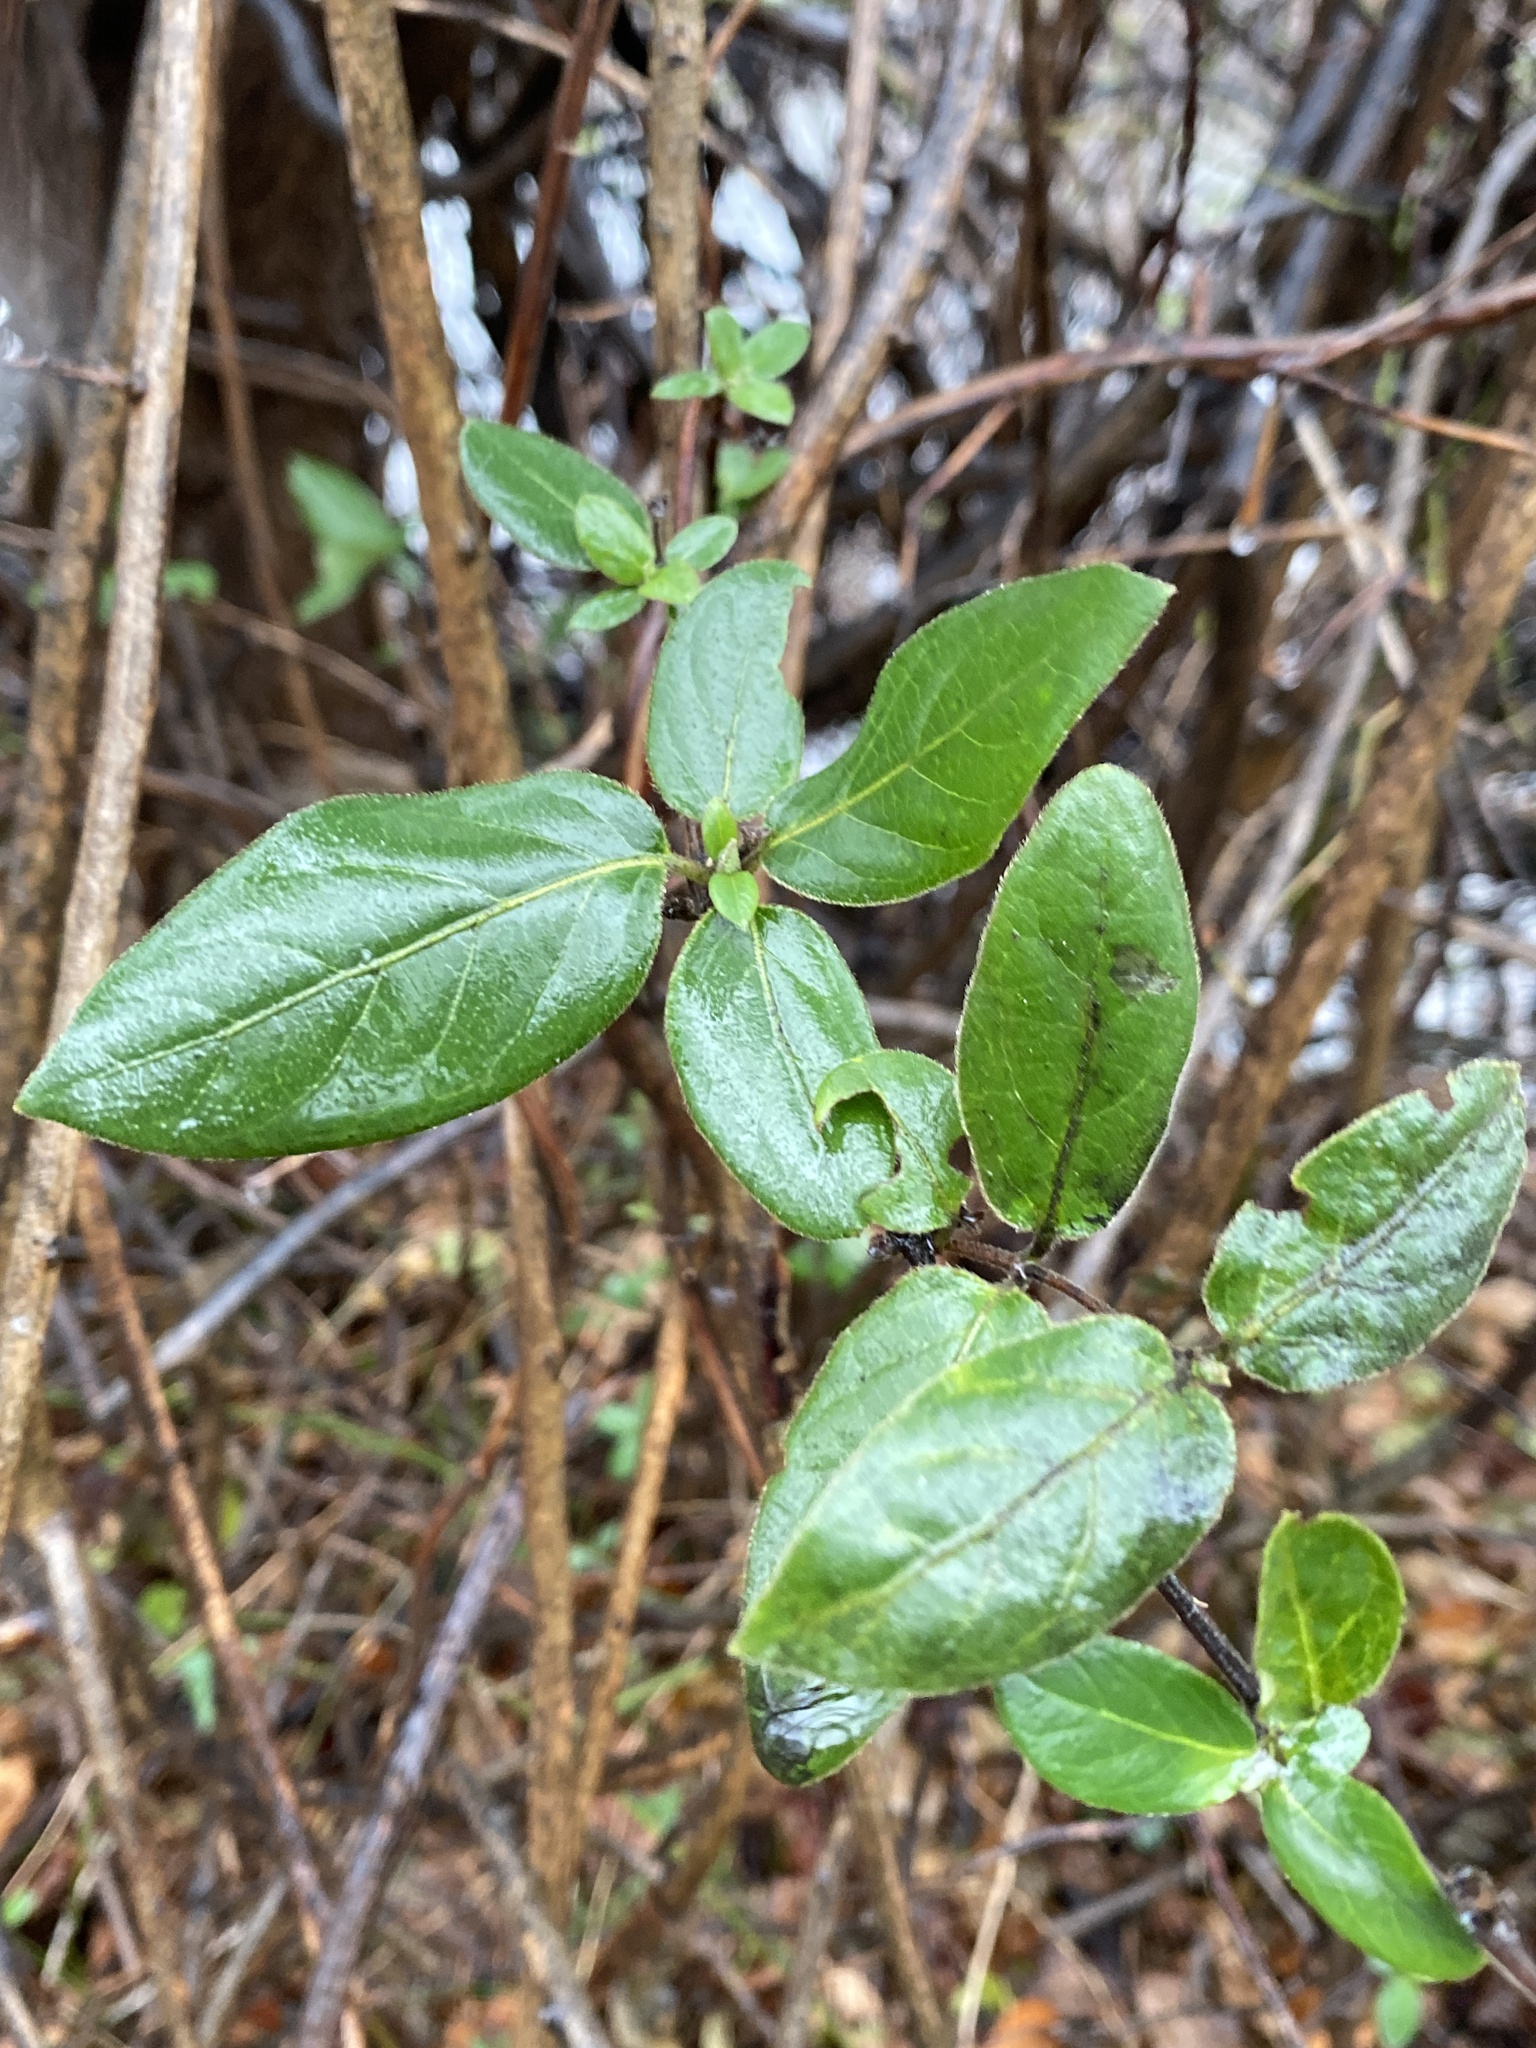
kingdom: Plantae
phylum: Tracheophyta
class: Magnoliopsida
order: Dipsacales
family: Caprifoliaceae
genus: Lonicera
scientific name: Lonicera japonica
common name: Japanese honeysuckle
